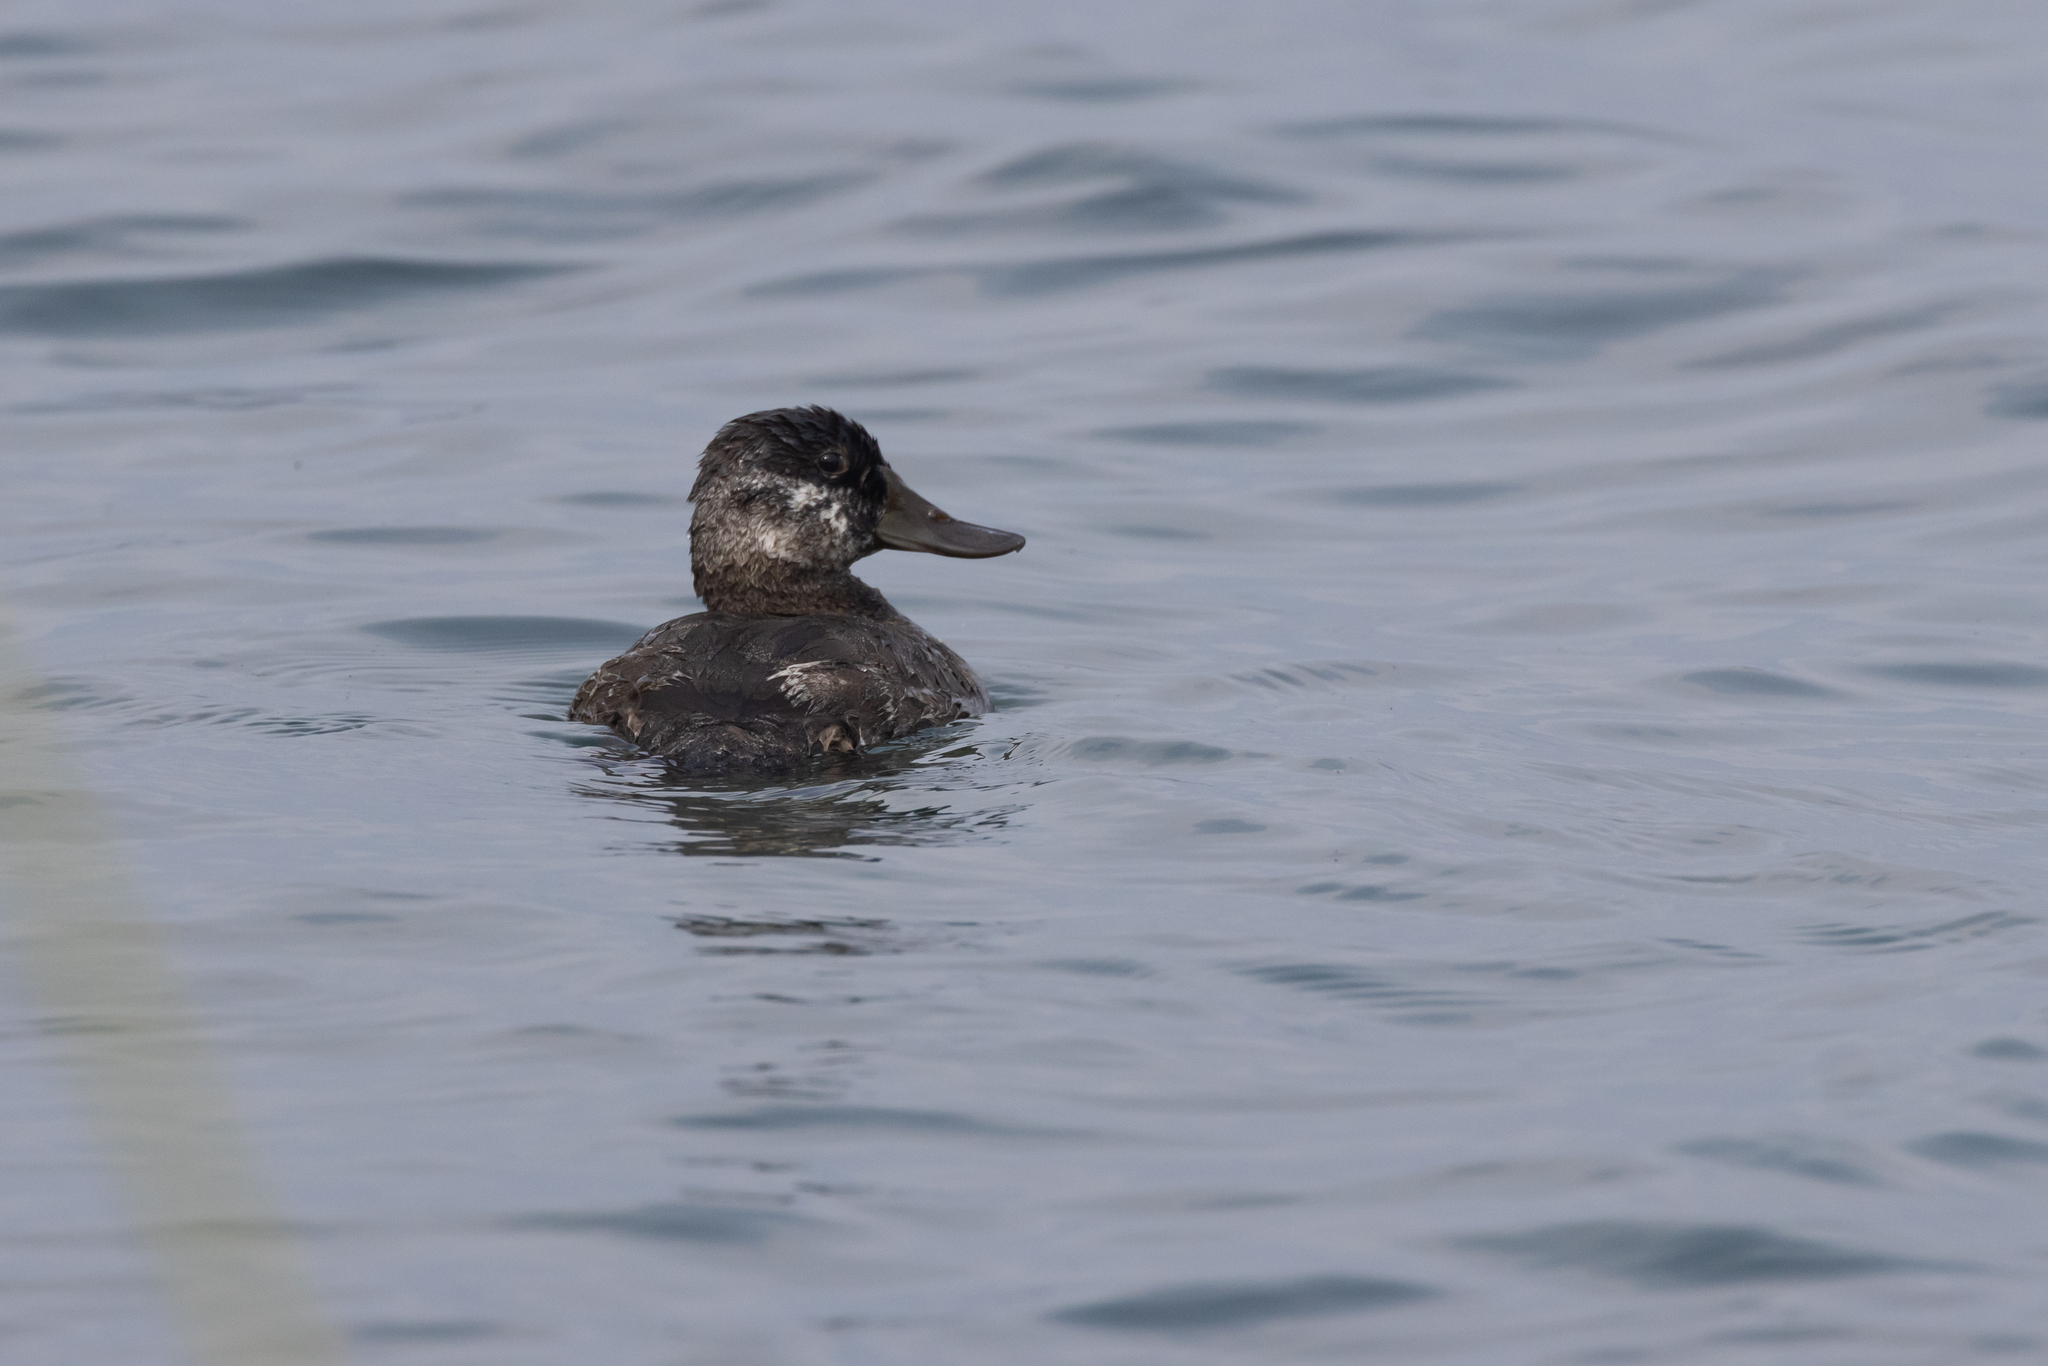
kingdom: Animalia
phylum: Chordata
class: Aves
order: Anseriformes
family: Anatidae
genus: Oxyura
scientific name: Oxyura jamaicensis
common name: Ruddy duck
